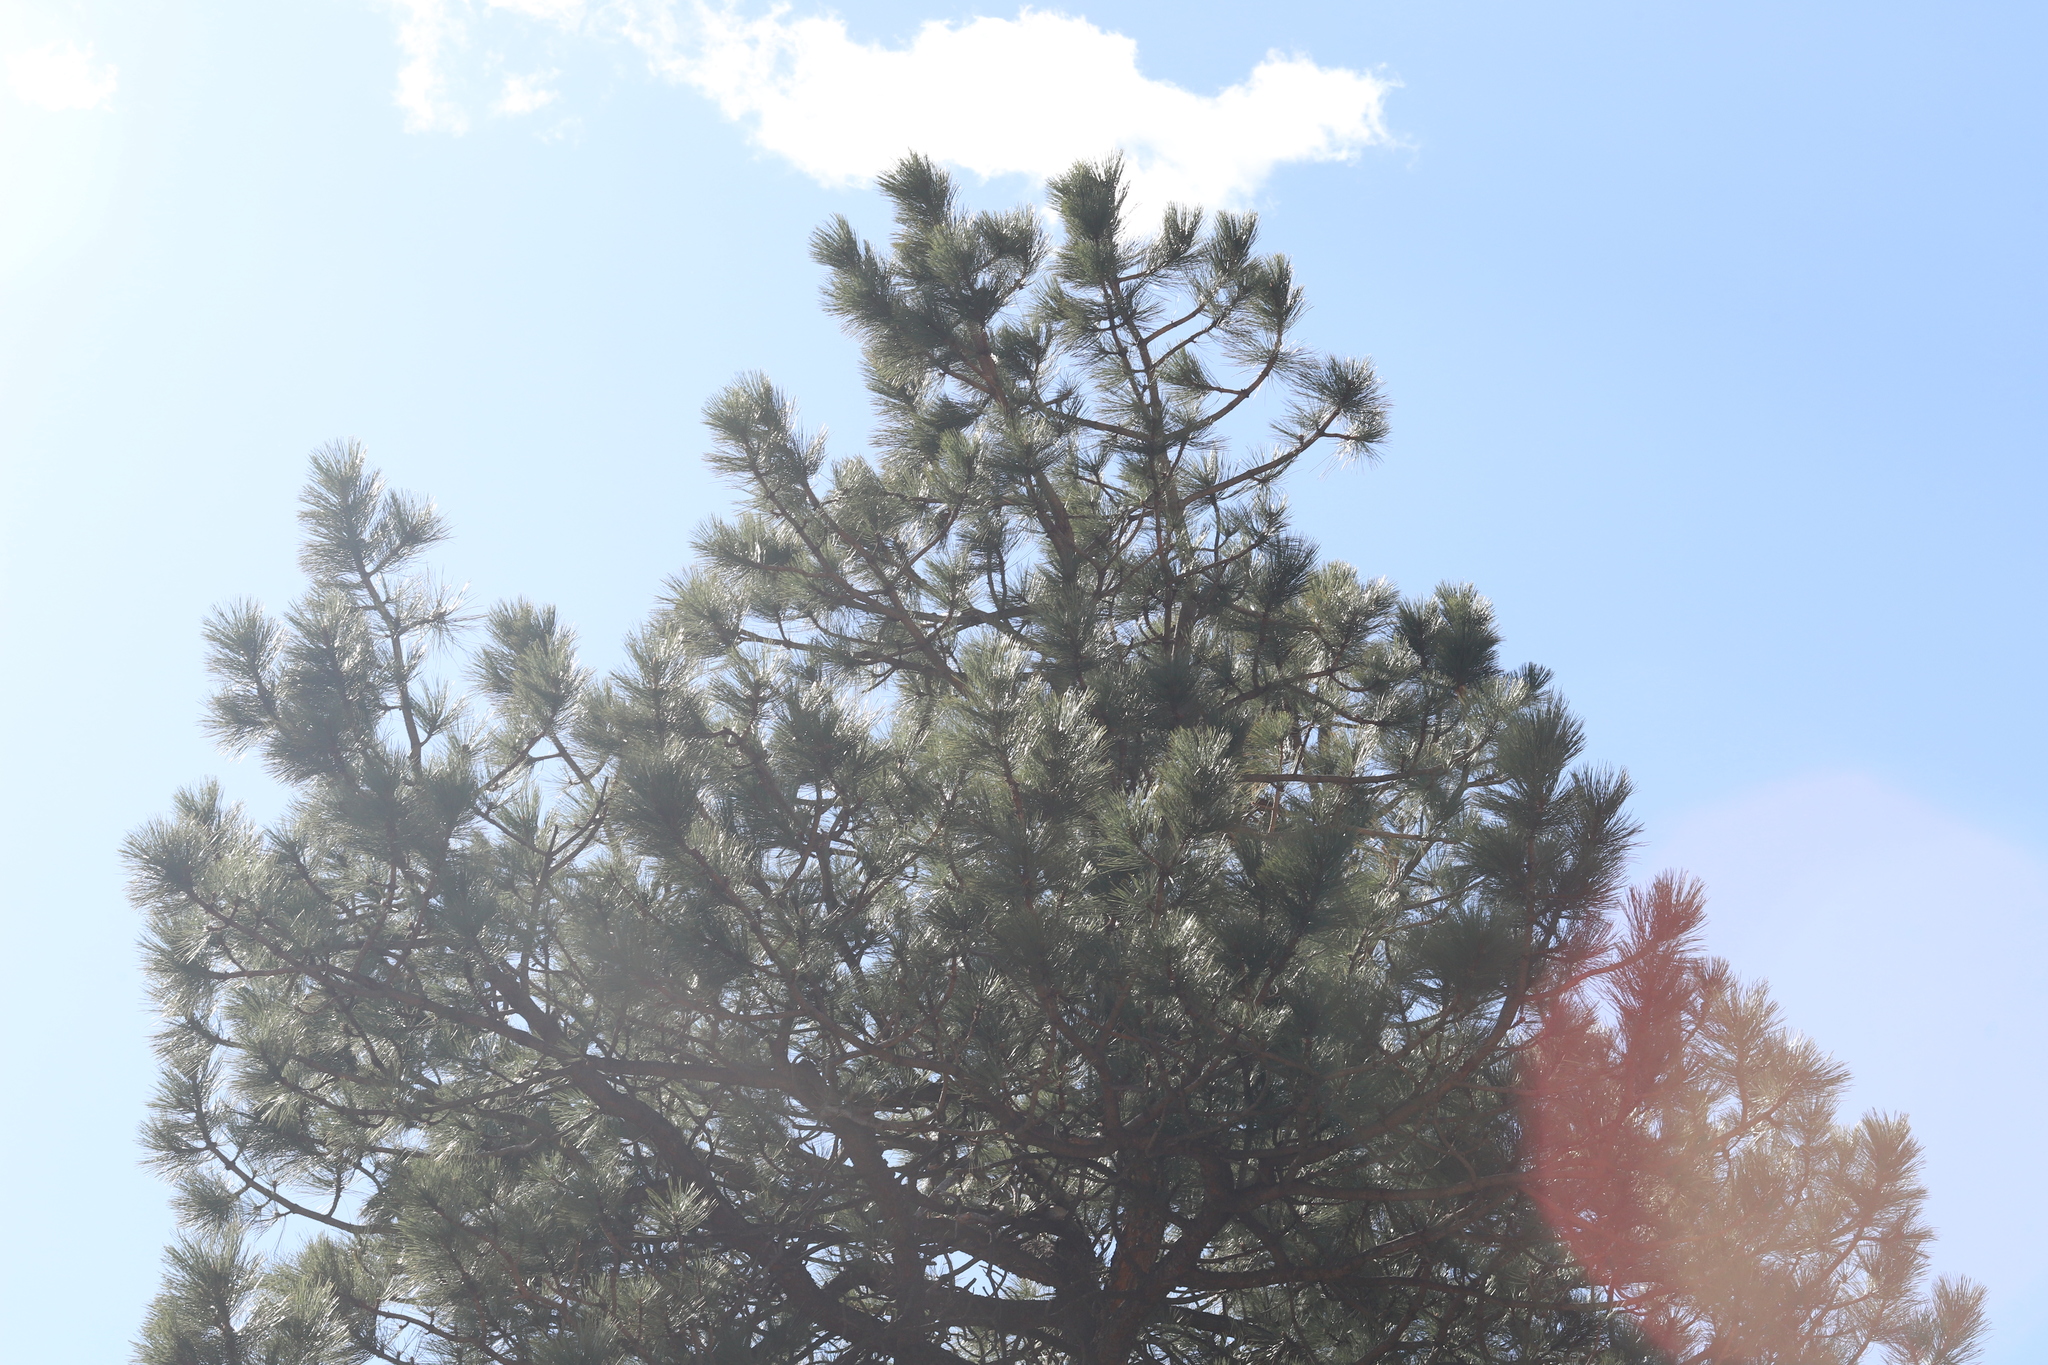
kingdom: Plantae
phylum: Tracheophyta
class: Pinopsida
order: Pinales
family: Pinaceae
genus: Pinus
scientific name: Pinus ponderosa
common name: Western yellow-pine
